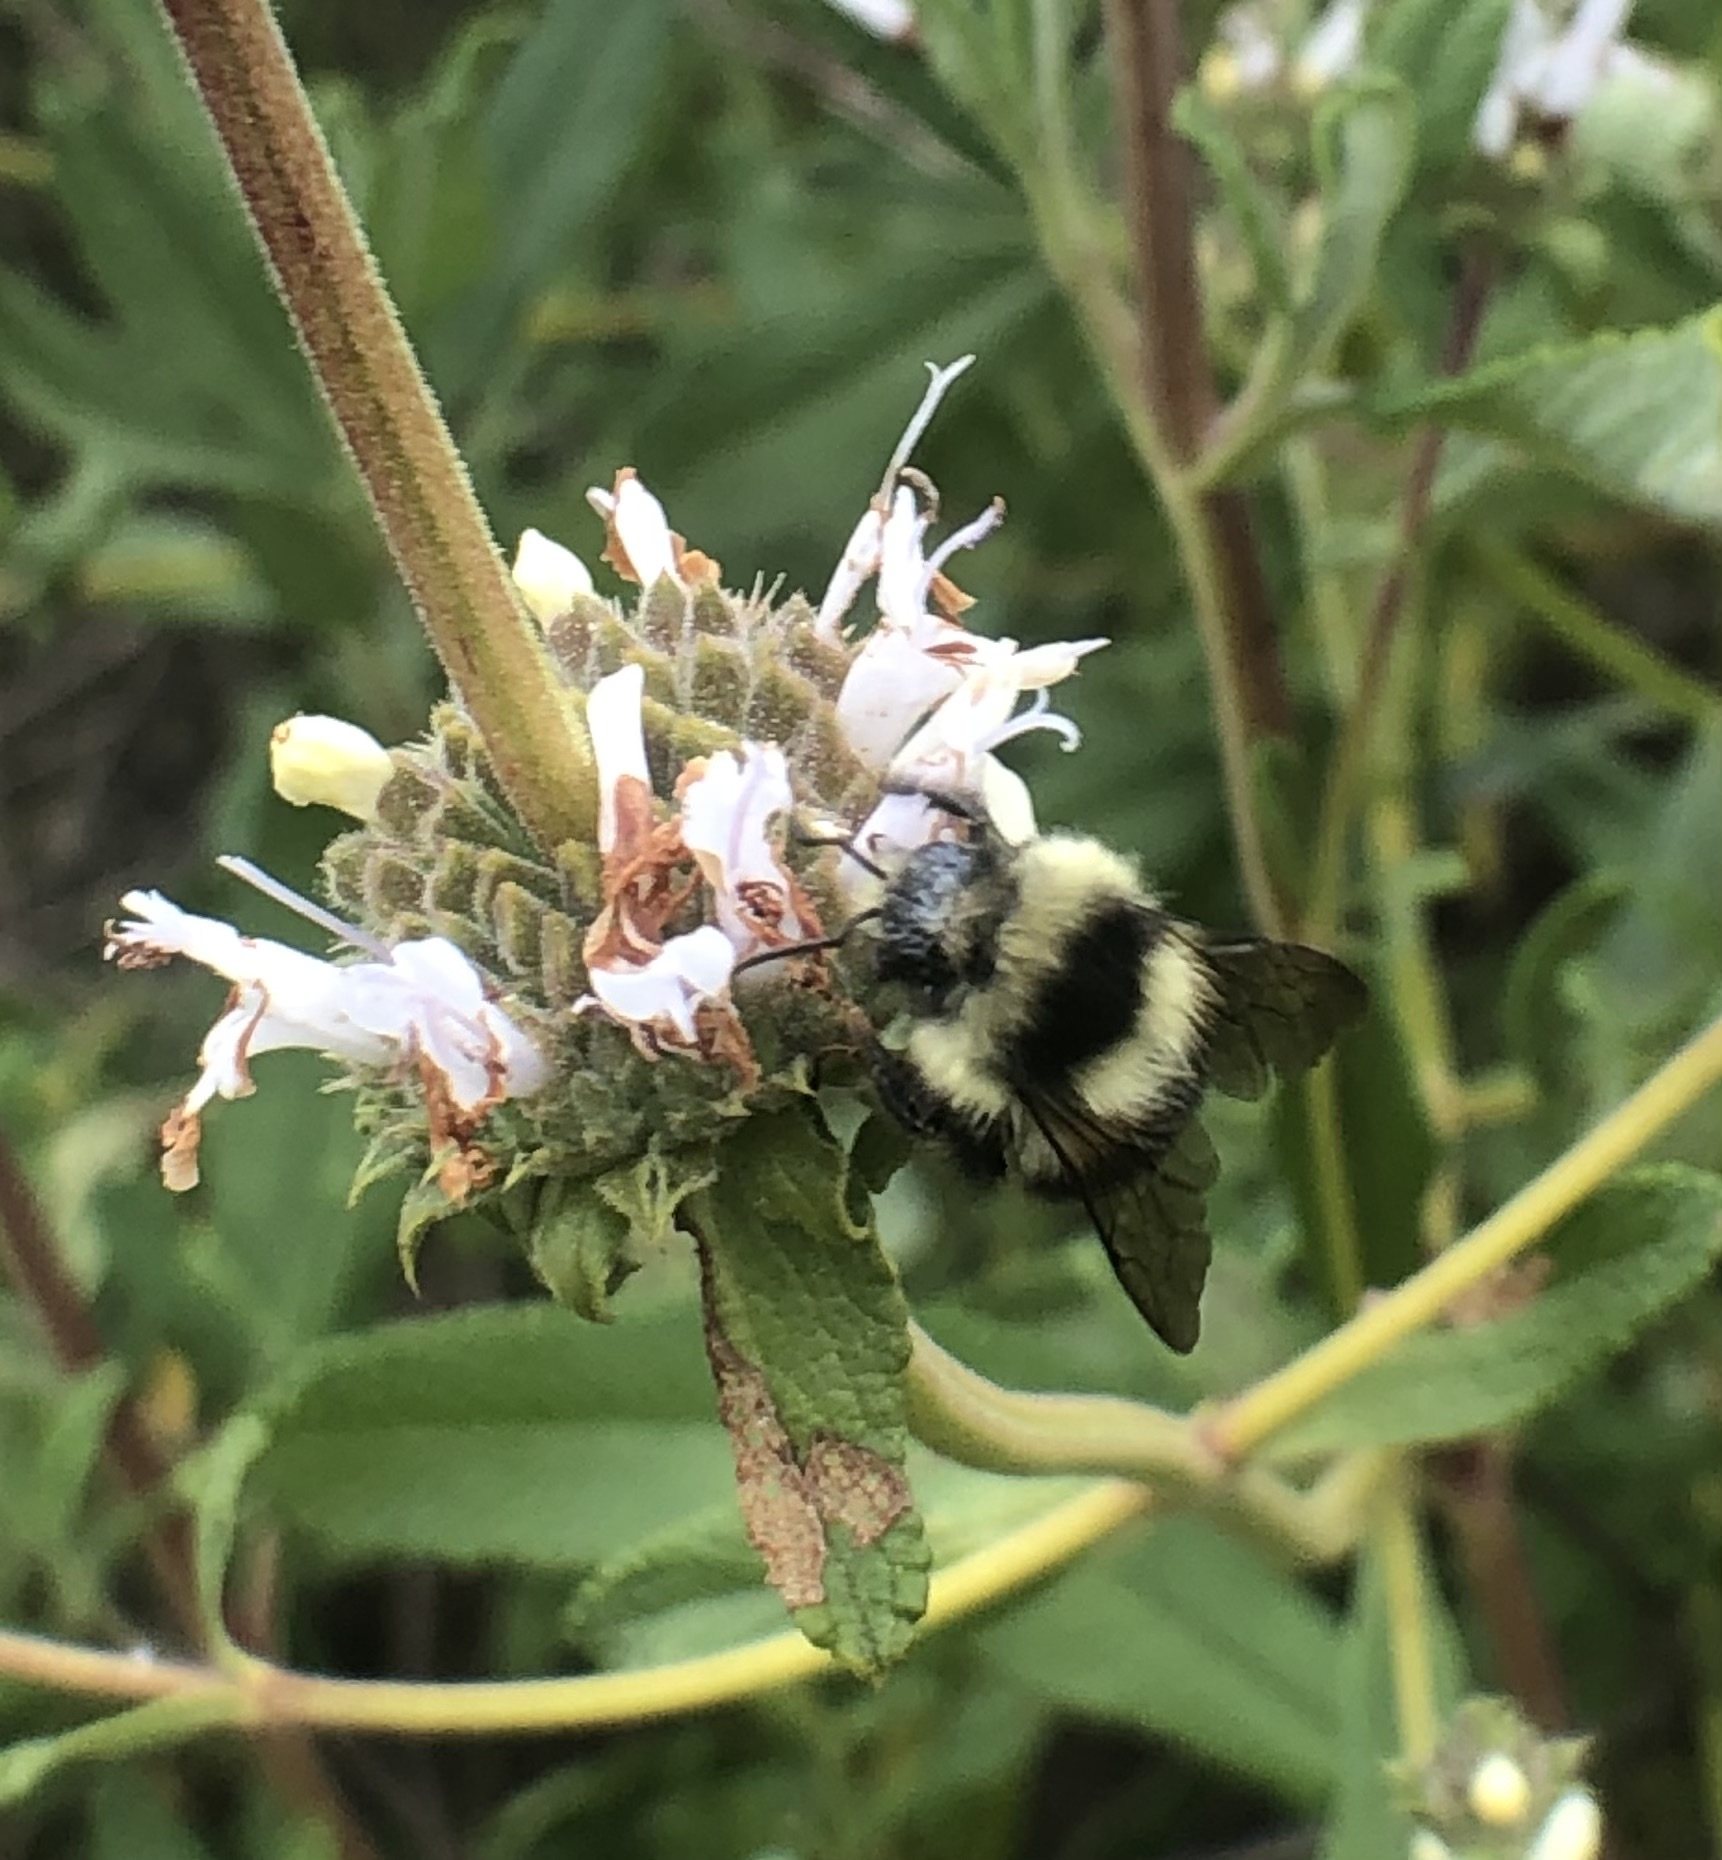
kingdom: Animalia
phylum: Arthropoda
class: Insecta
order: Hymenoptera
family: Apidae
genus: Bombus
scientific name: Bombus melanopygus
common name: Black tail bumble bee
